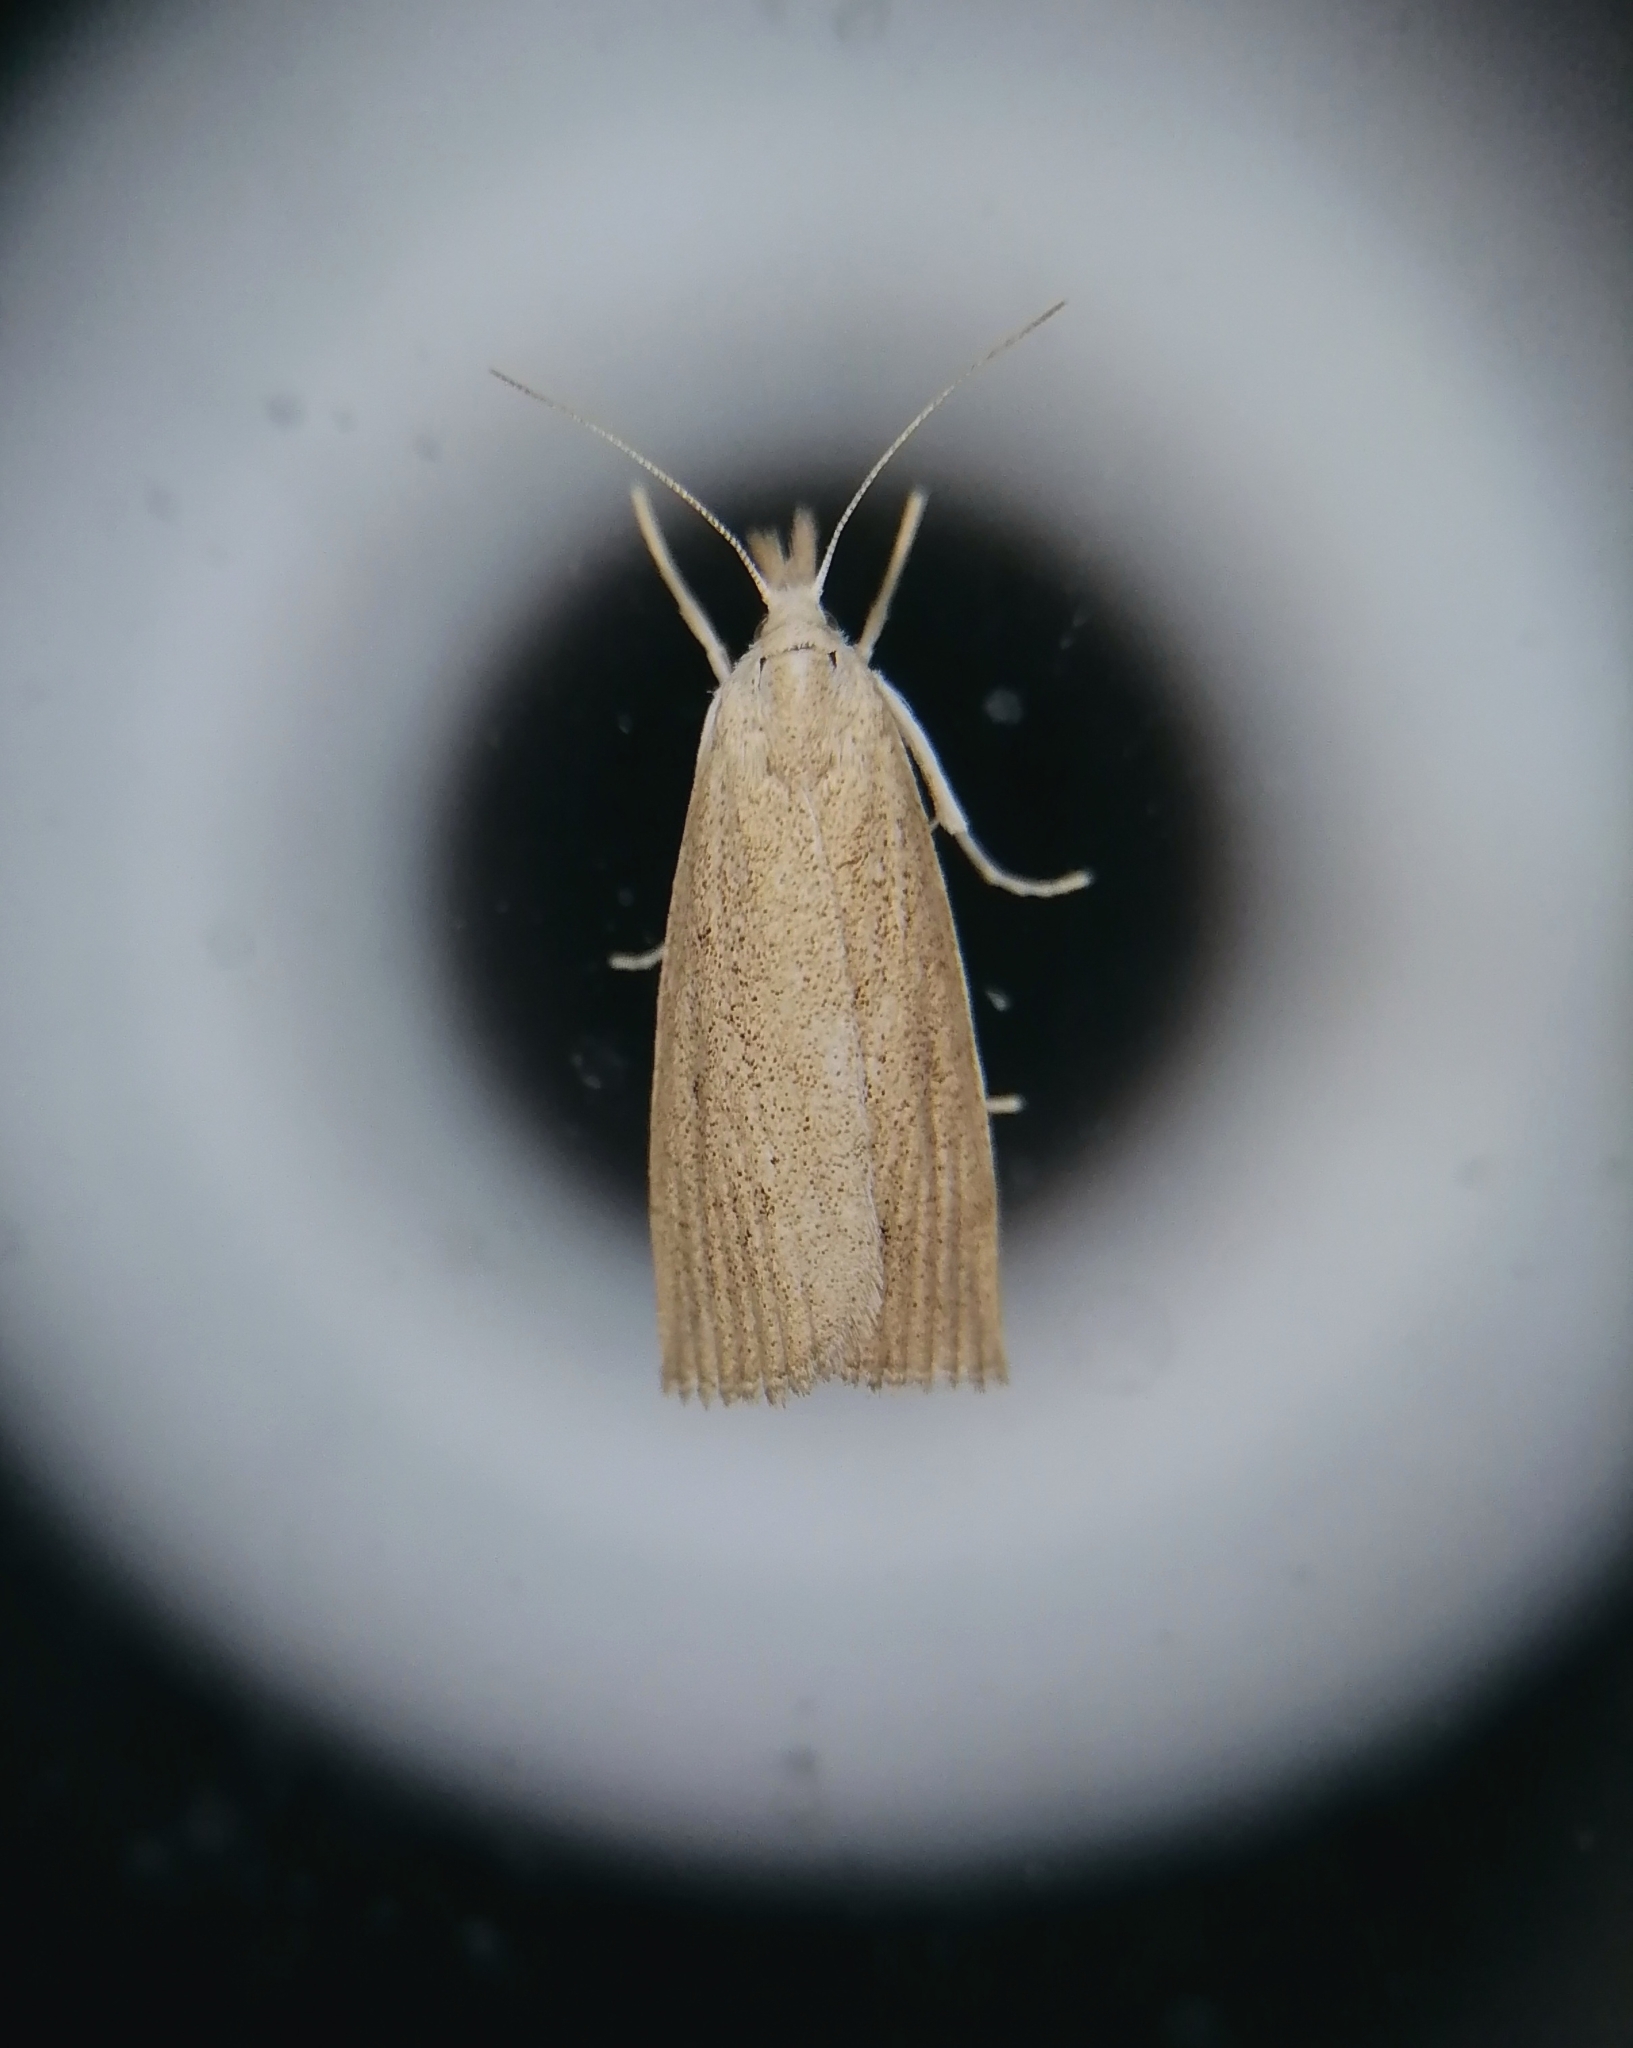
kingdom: Animalia
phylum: Arthropoda
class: Insecta
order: Lepidoptera
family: Crambidae
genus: Calamotropha
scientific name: Calamotropha paludella
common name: Bulrush veneer
